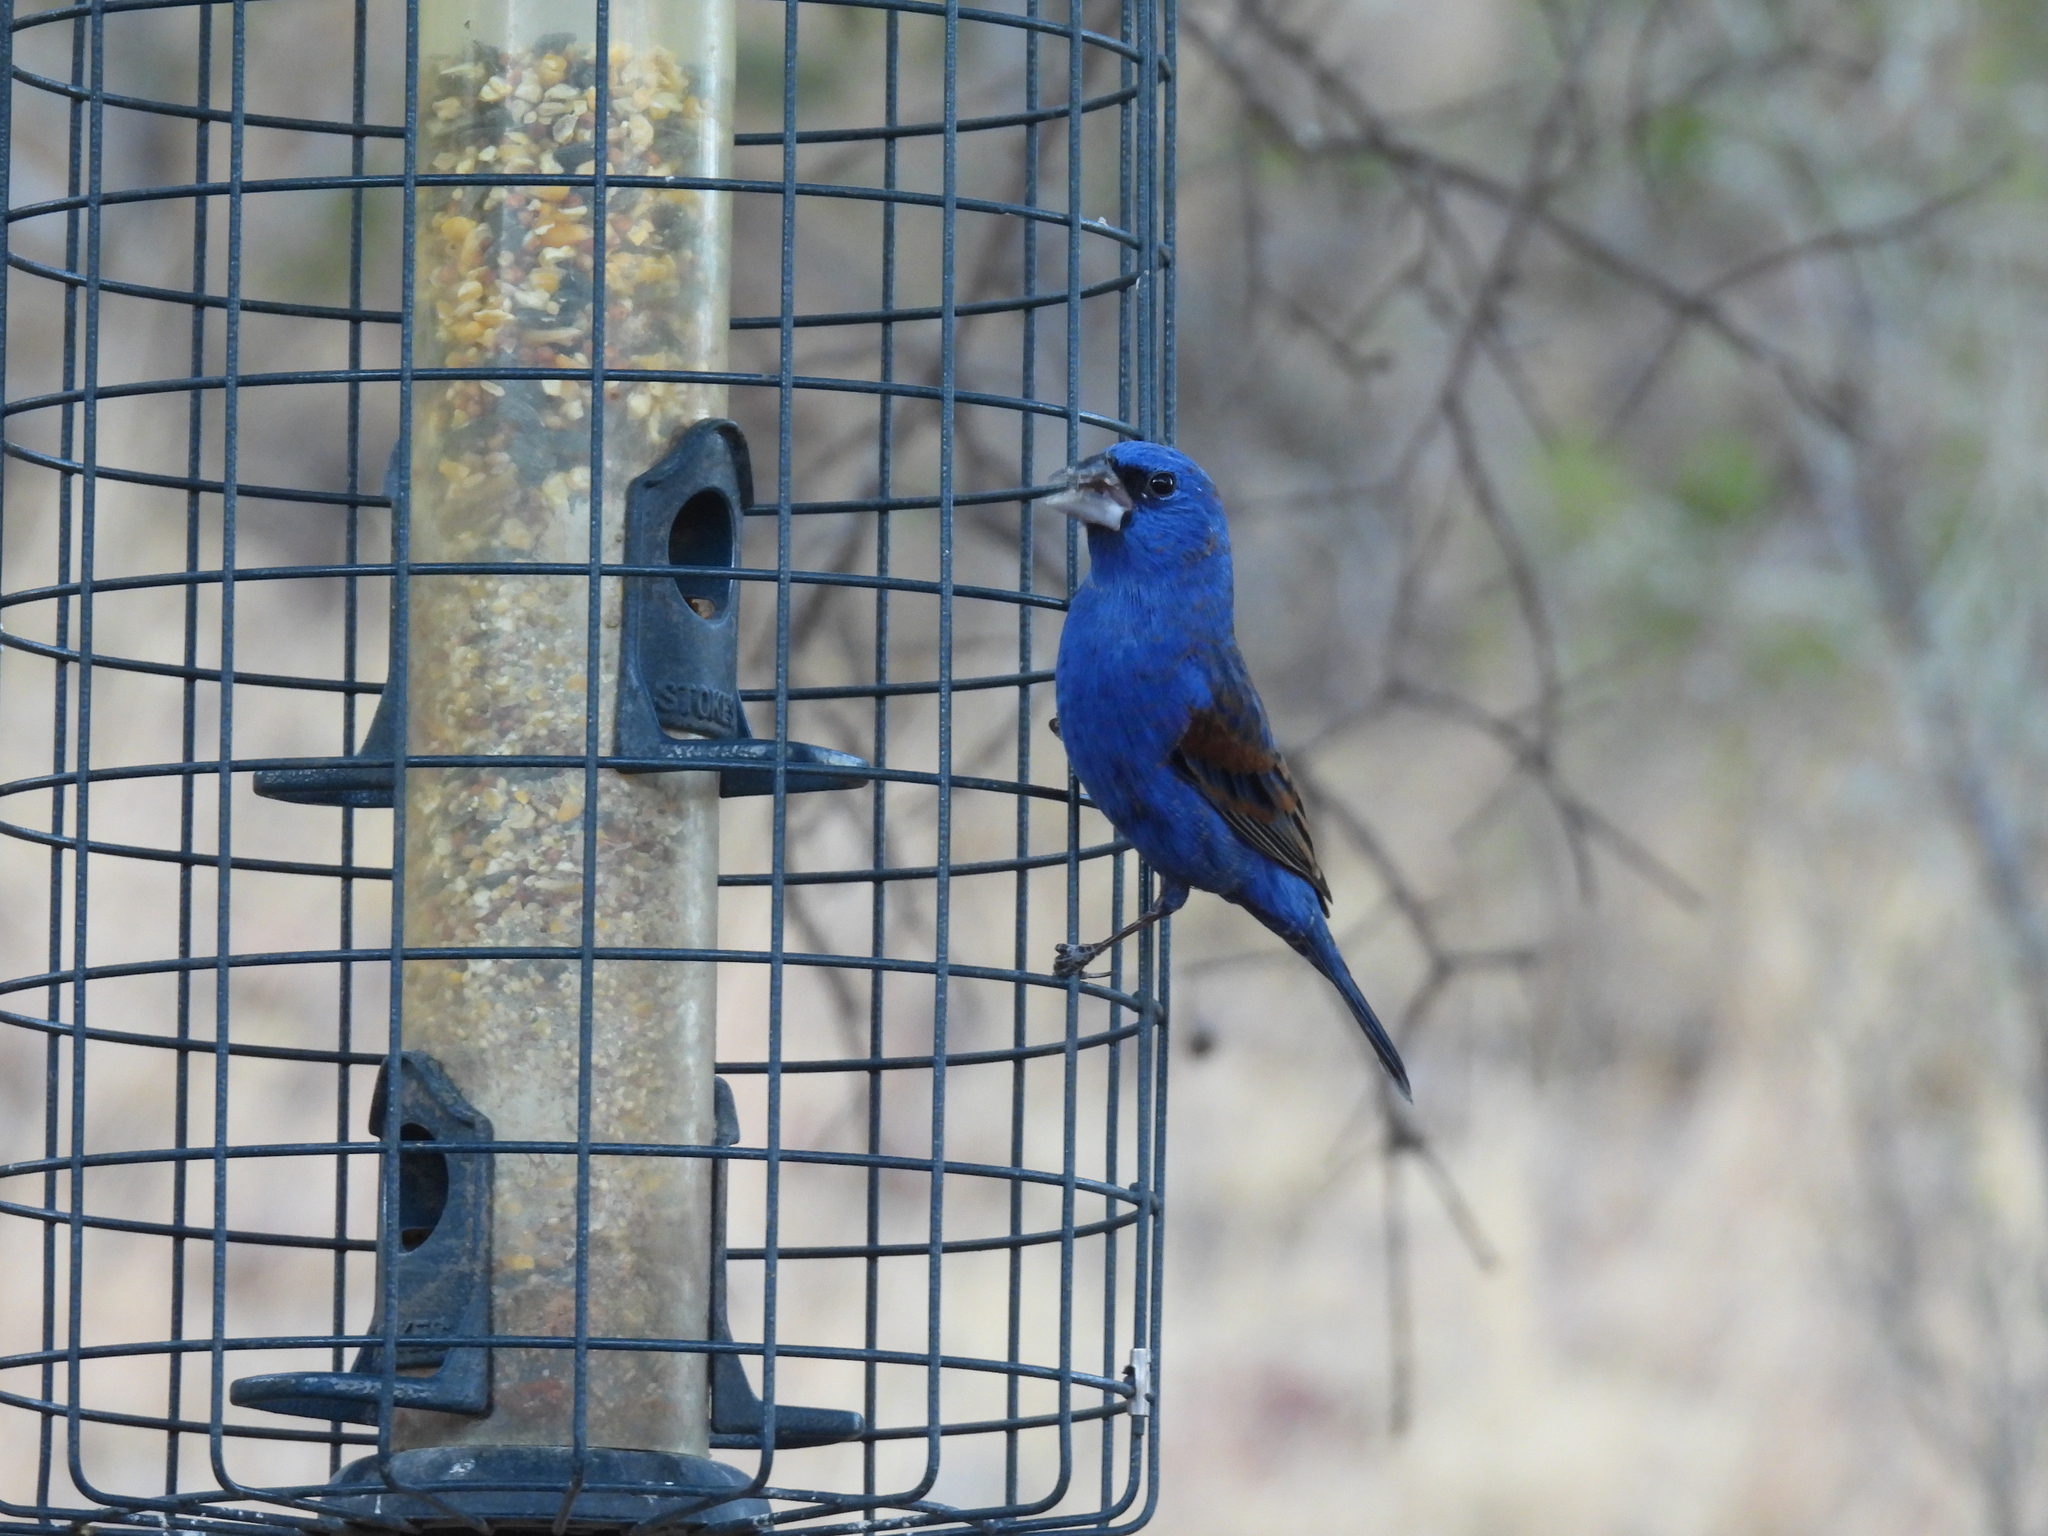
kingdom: Animalia
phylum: Chordata
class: Aves
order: Passeriformes
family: Cardinalidae
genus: Passerina
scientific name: Passerina caerulea
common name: Blue grosbeak
